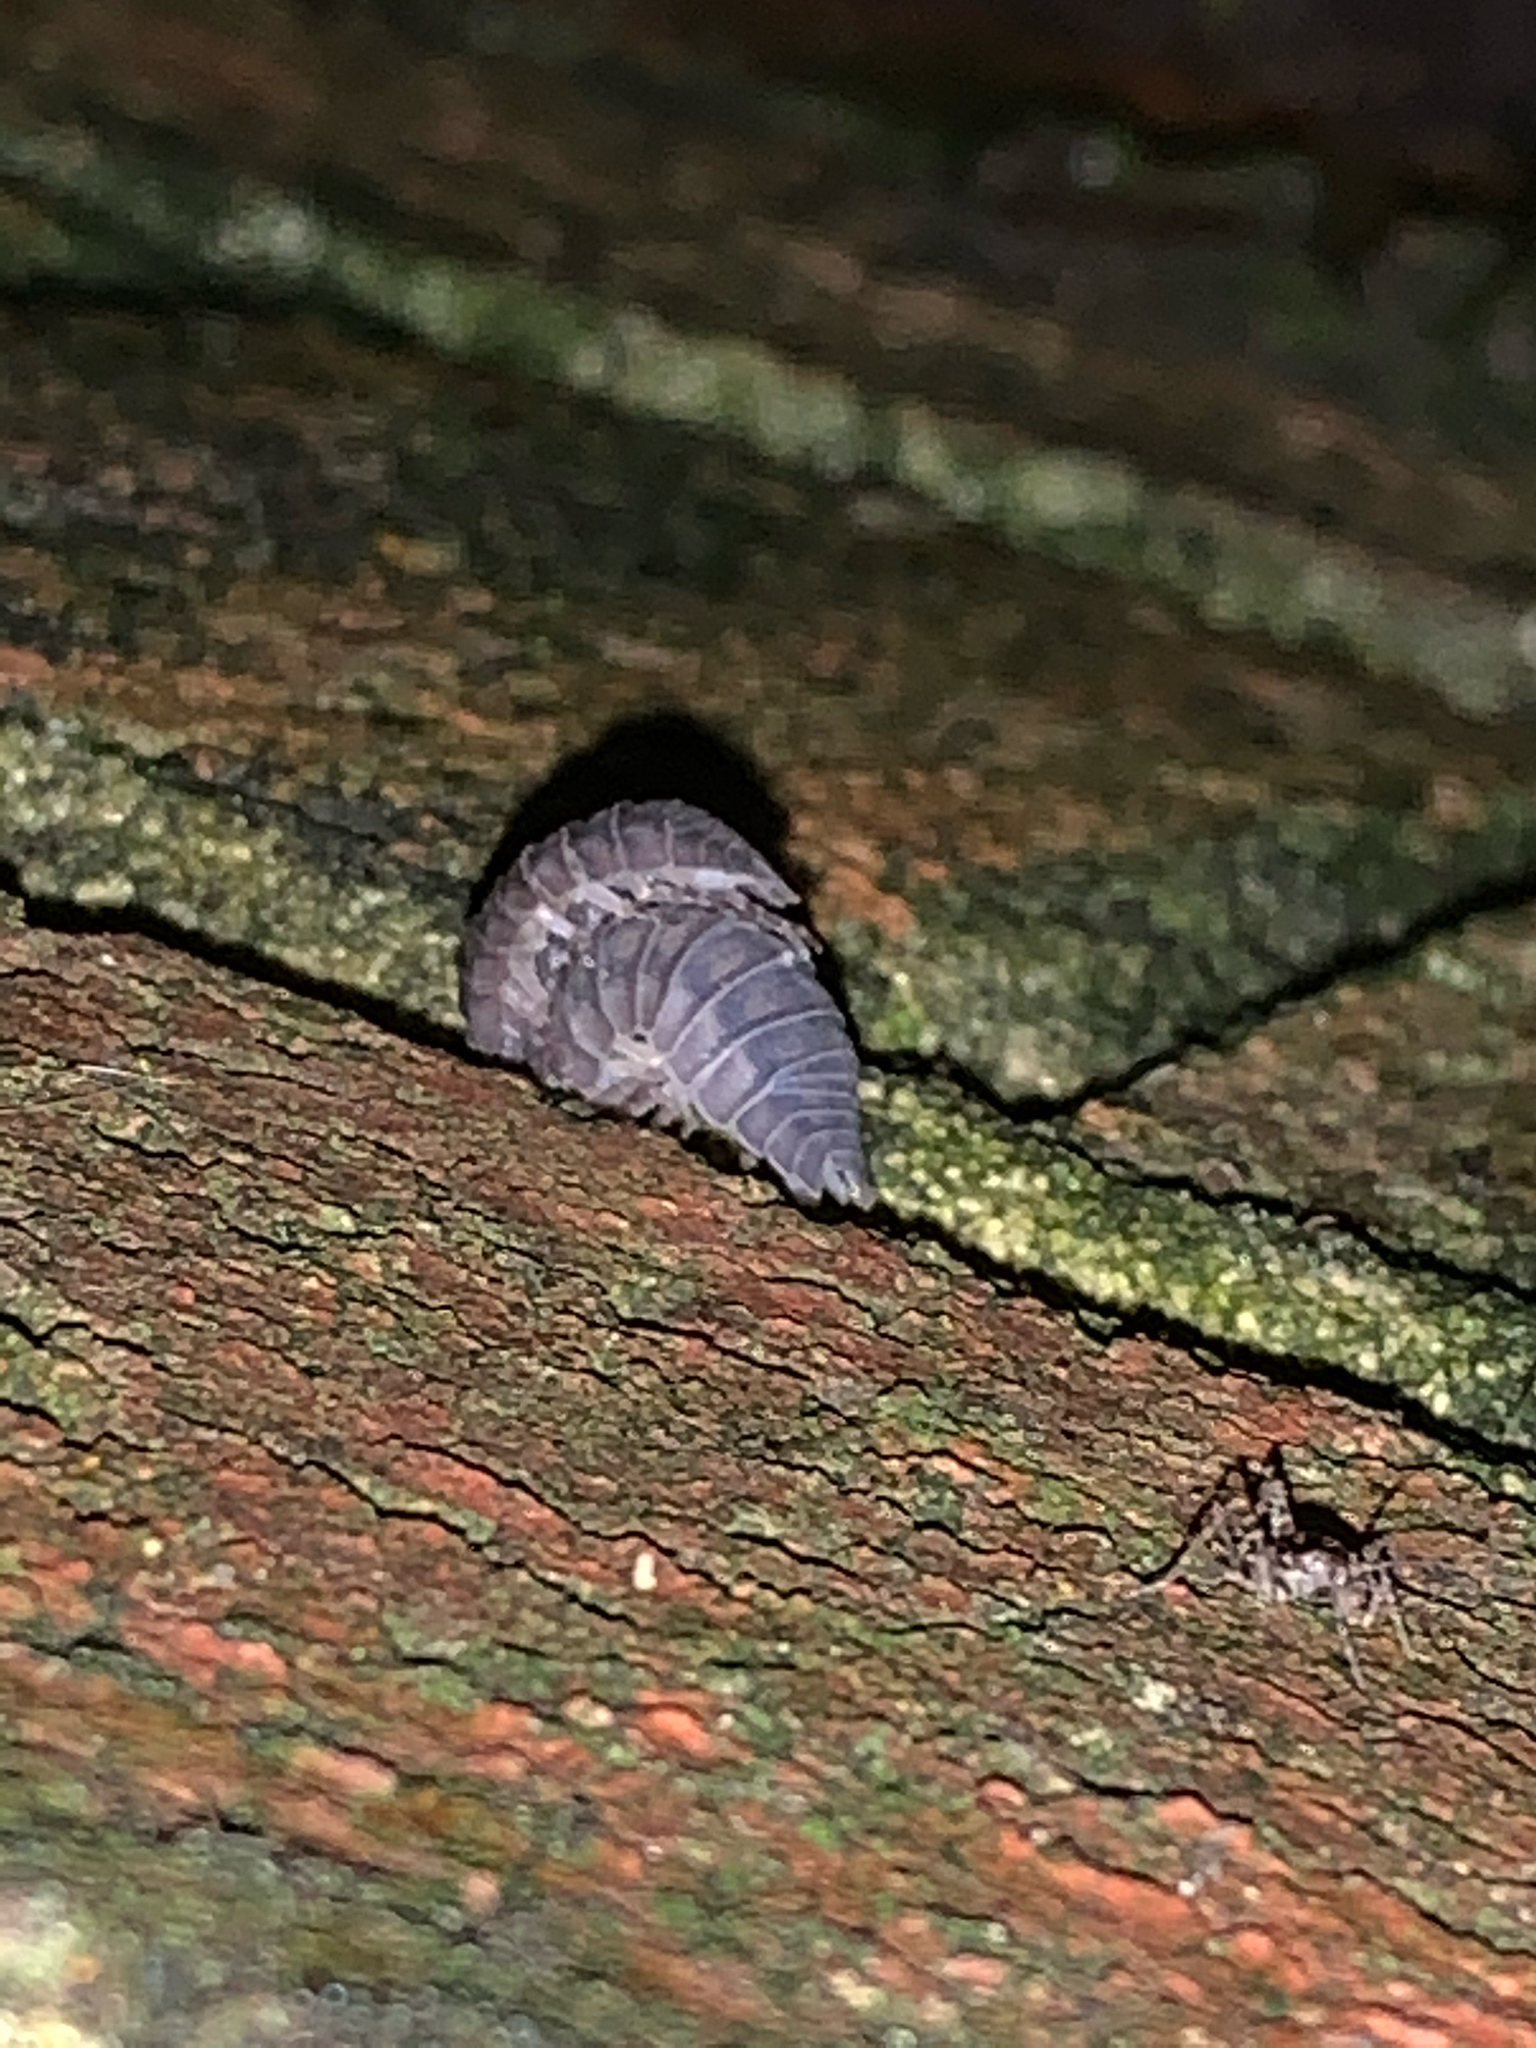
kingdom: Animalia
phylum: Arthropoda
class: Malacostraca
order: Isopoda
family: Armadillidiidae
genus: Armadillidium
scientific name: Armadillidium nasatum
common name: Isopod
